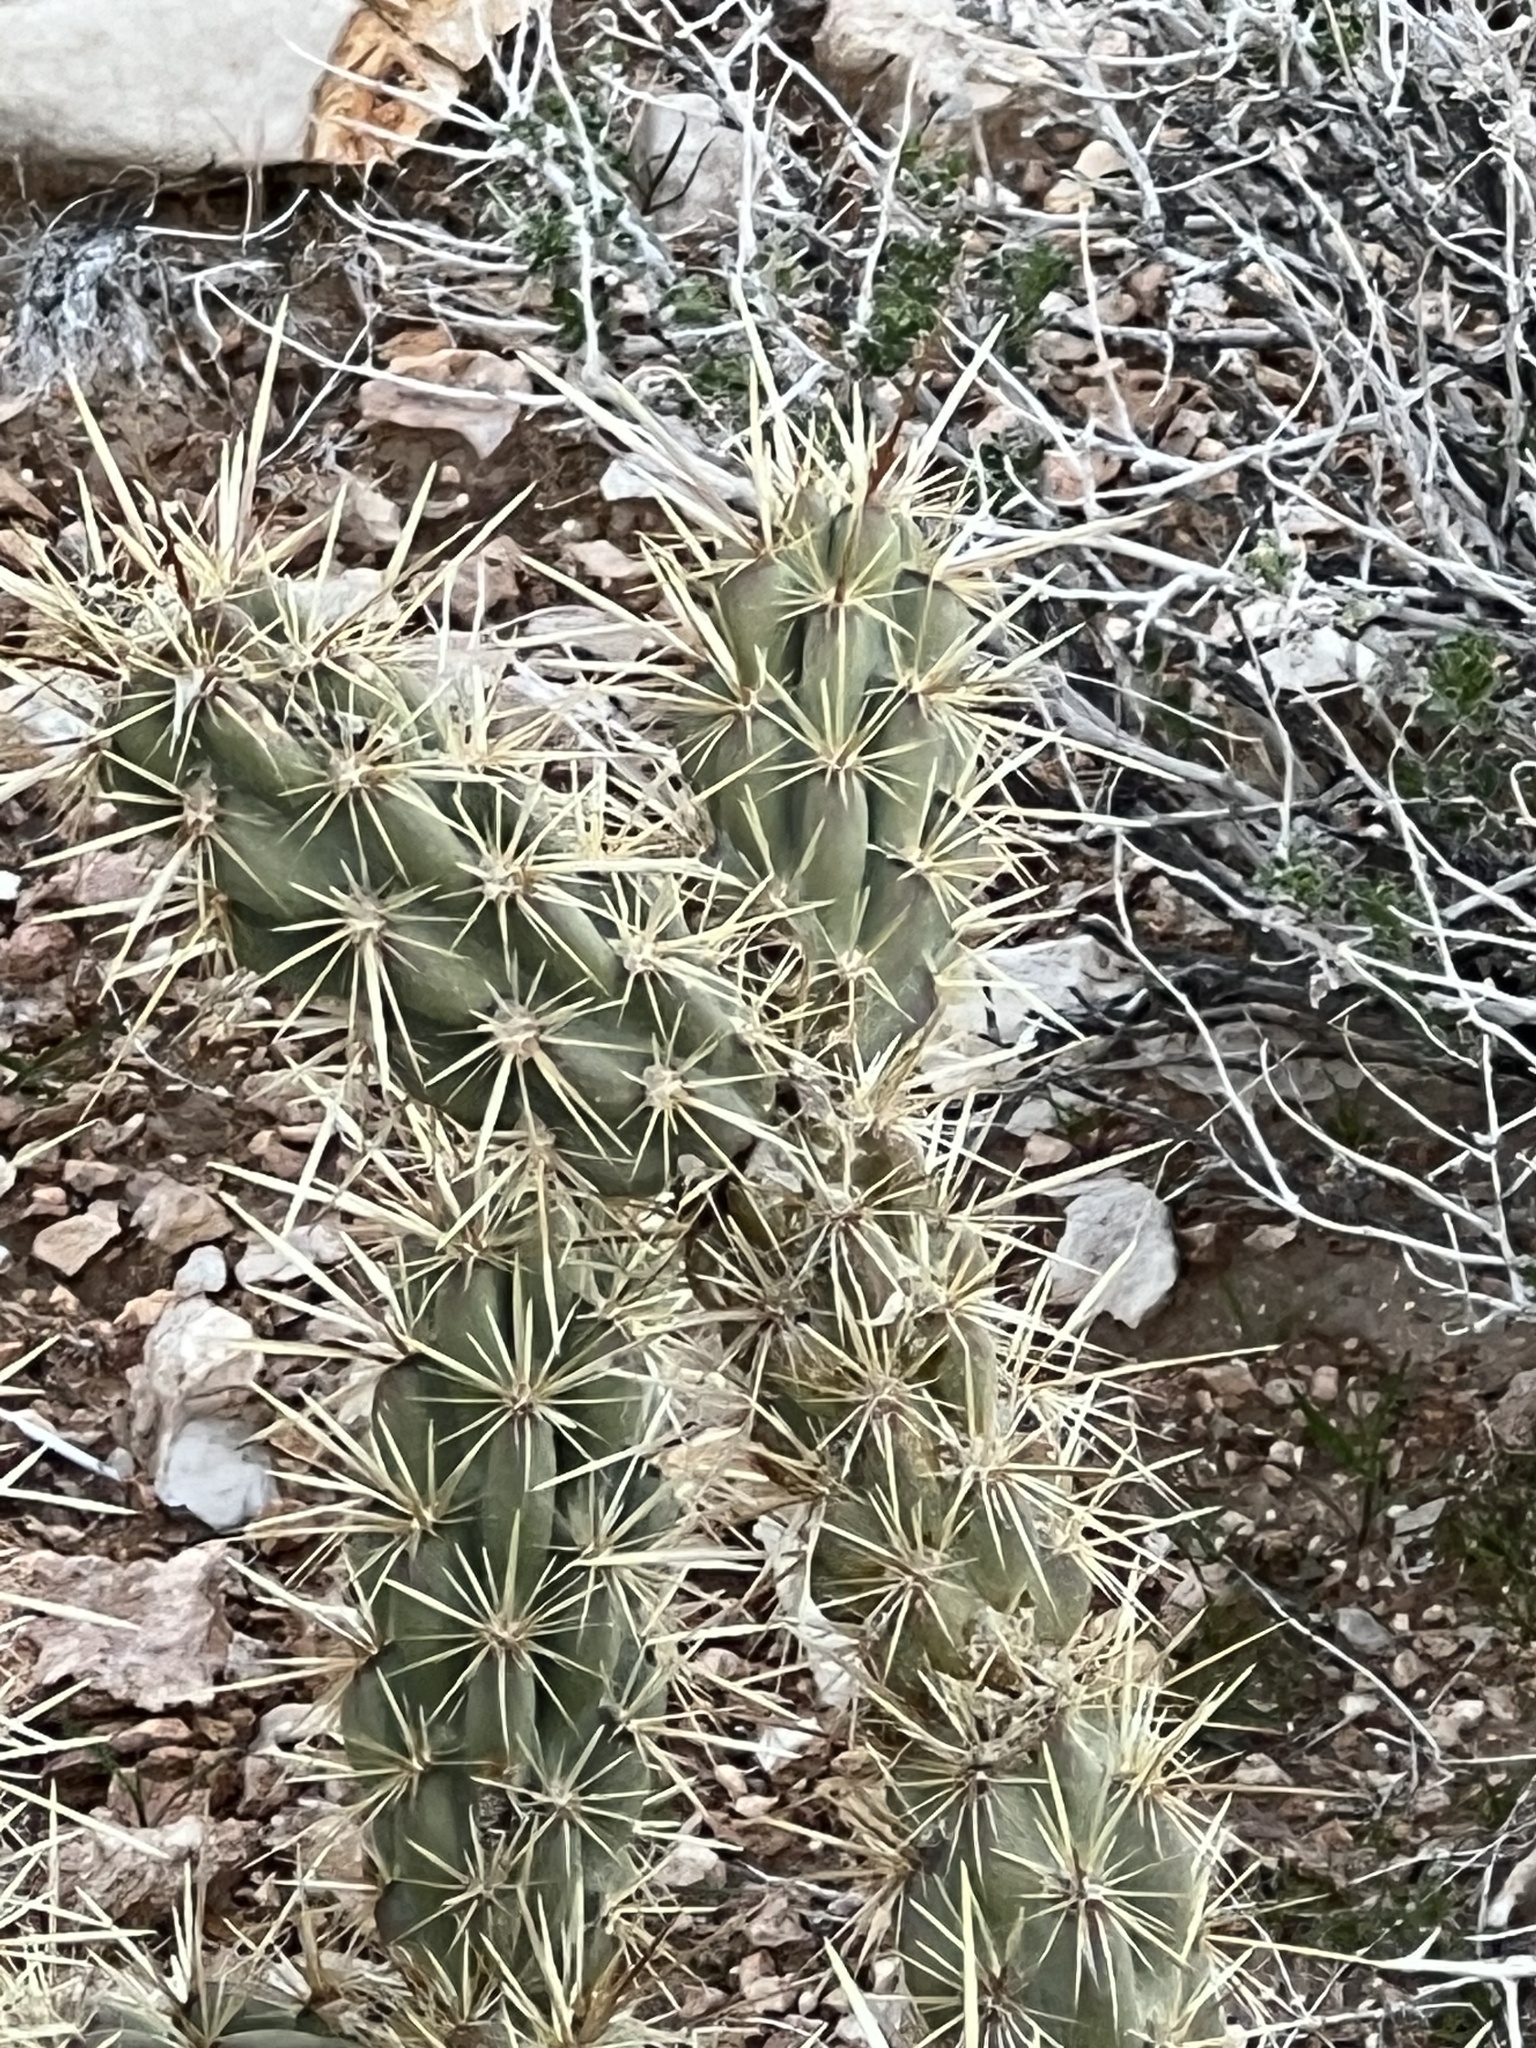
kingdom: Plantae
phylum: Tracheophyta
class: Magnoliopsida
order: Caryophyllales
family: Cactaceae
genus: Cylindropuntia
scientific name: Cylindropuntia acanthocarpa
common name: Buckhorn cholla
